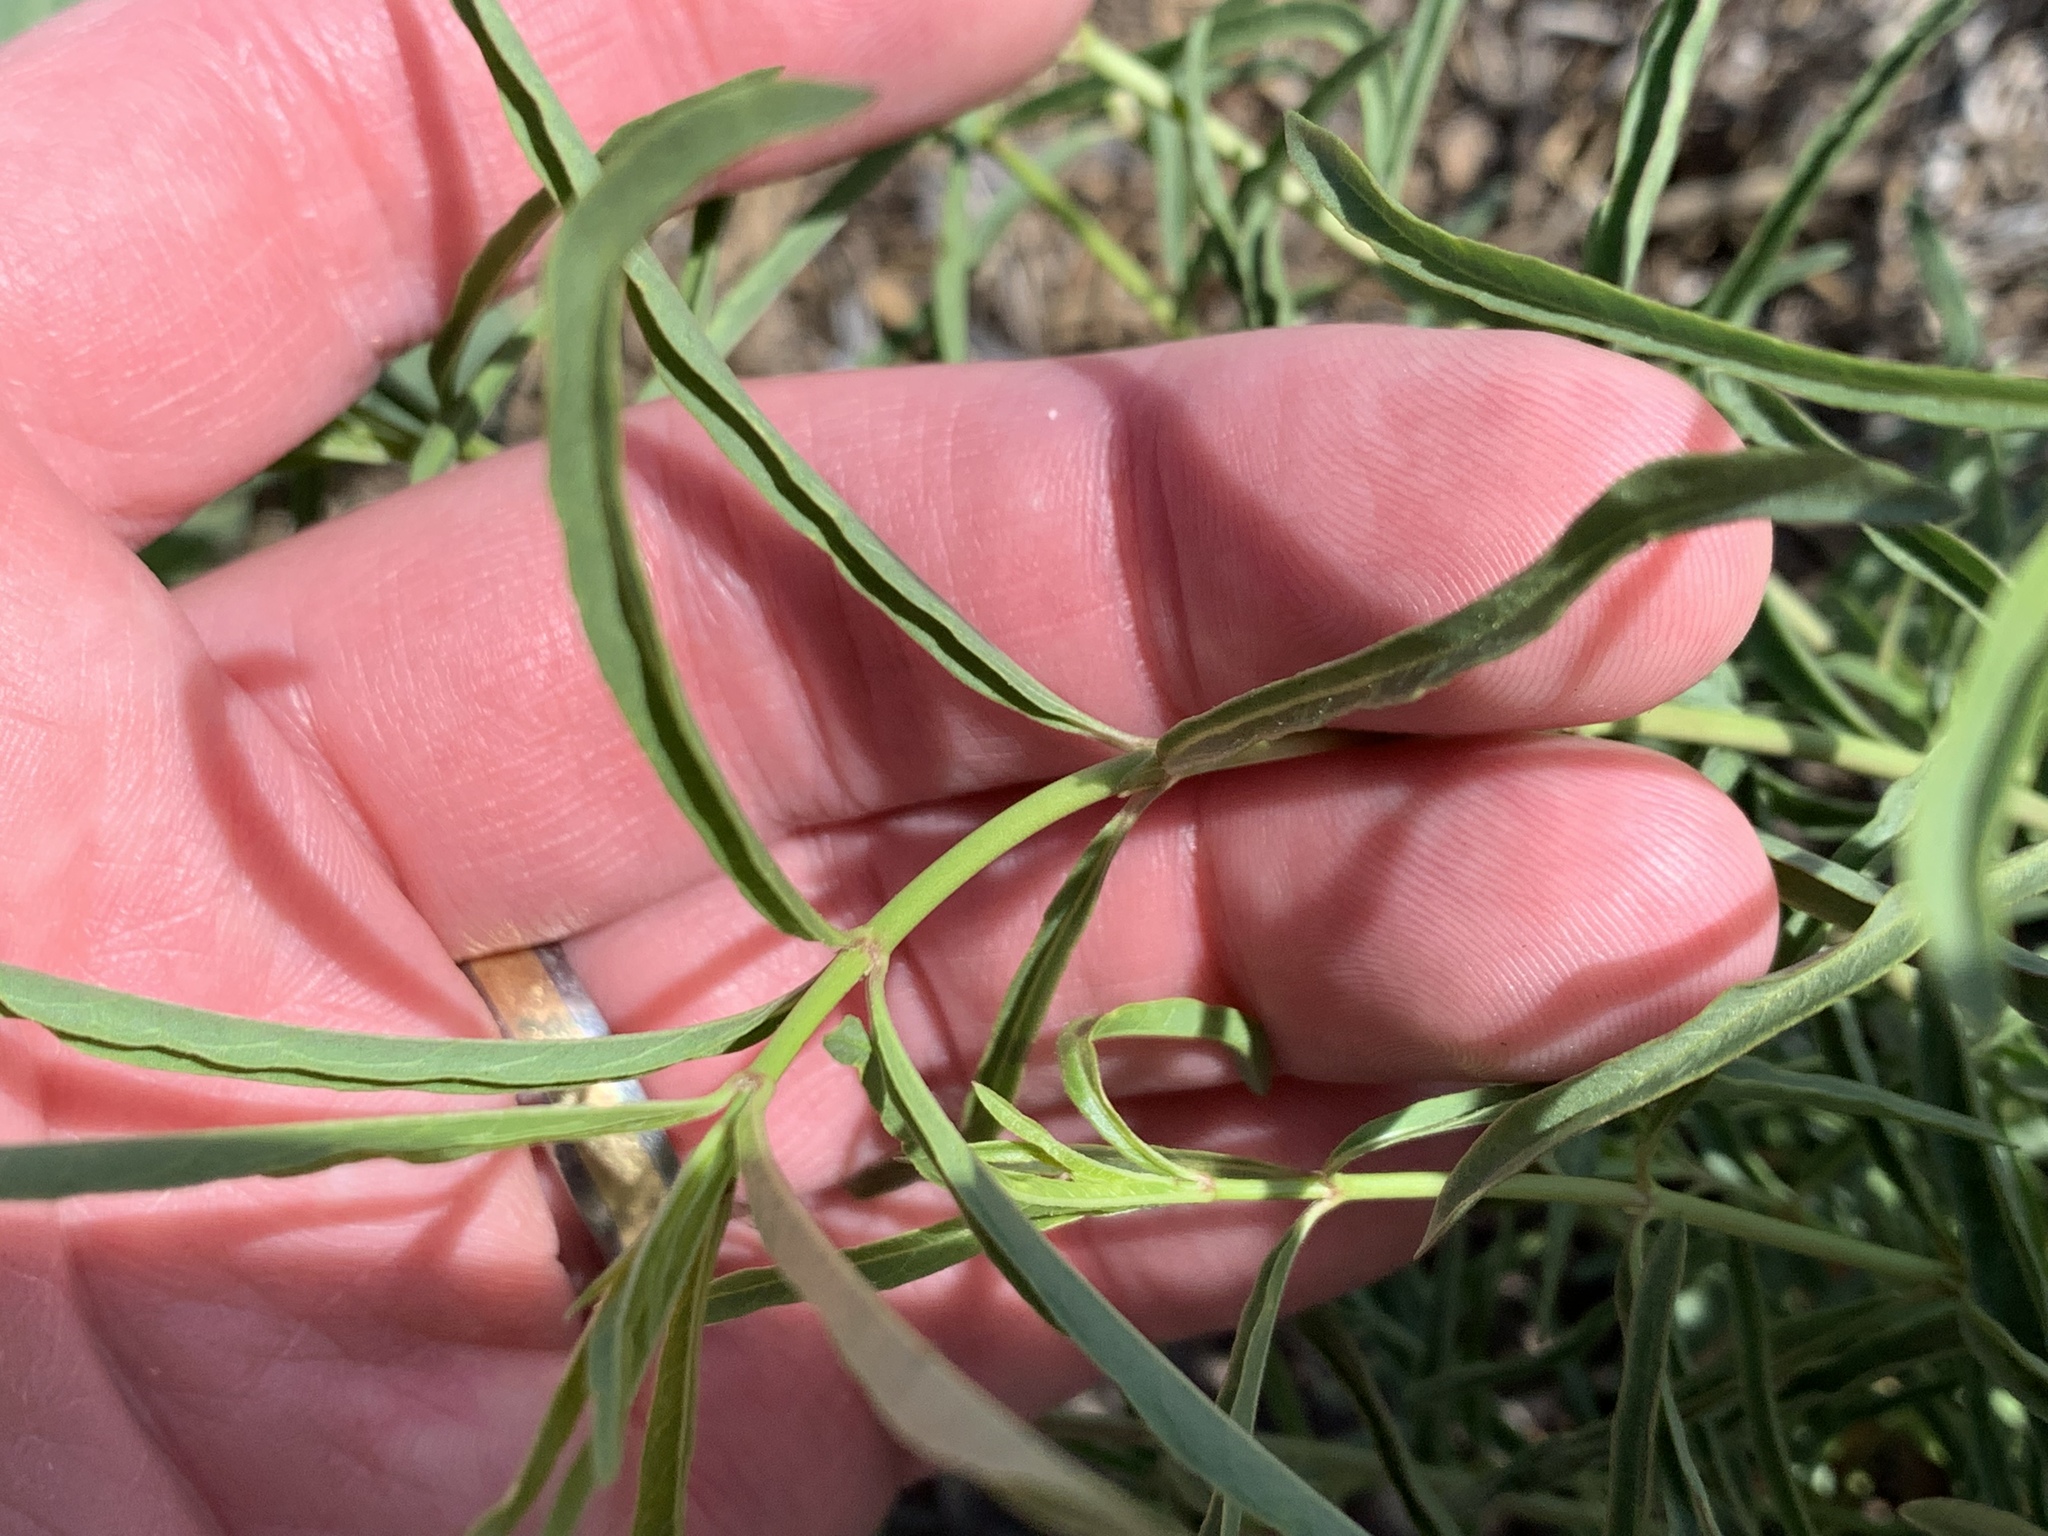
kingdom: Plantae
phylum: Tracheophyta
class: Magnoliopsida
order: Gentianales
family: Apocynaceae
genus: Asclepias
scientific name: Asclepias fascicularis
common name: Mexican milkweed
